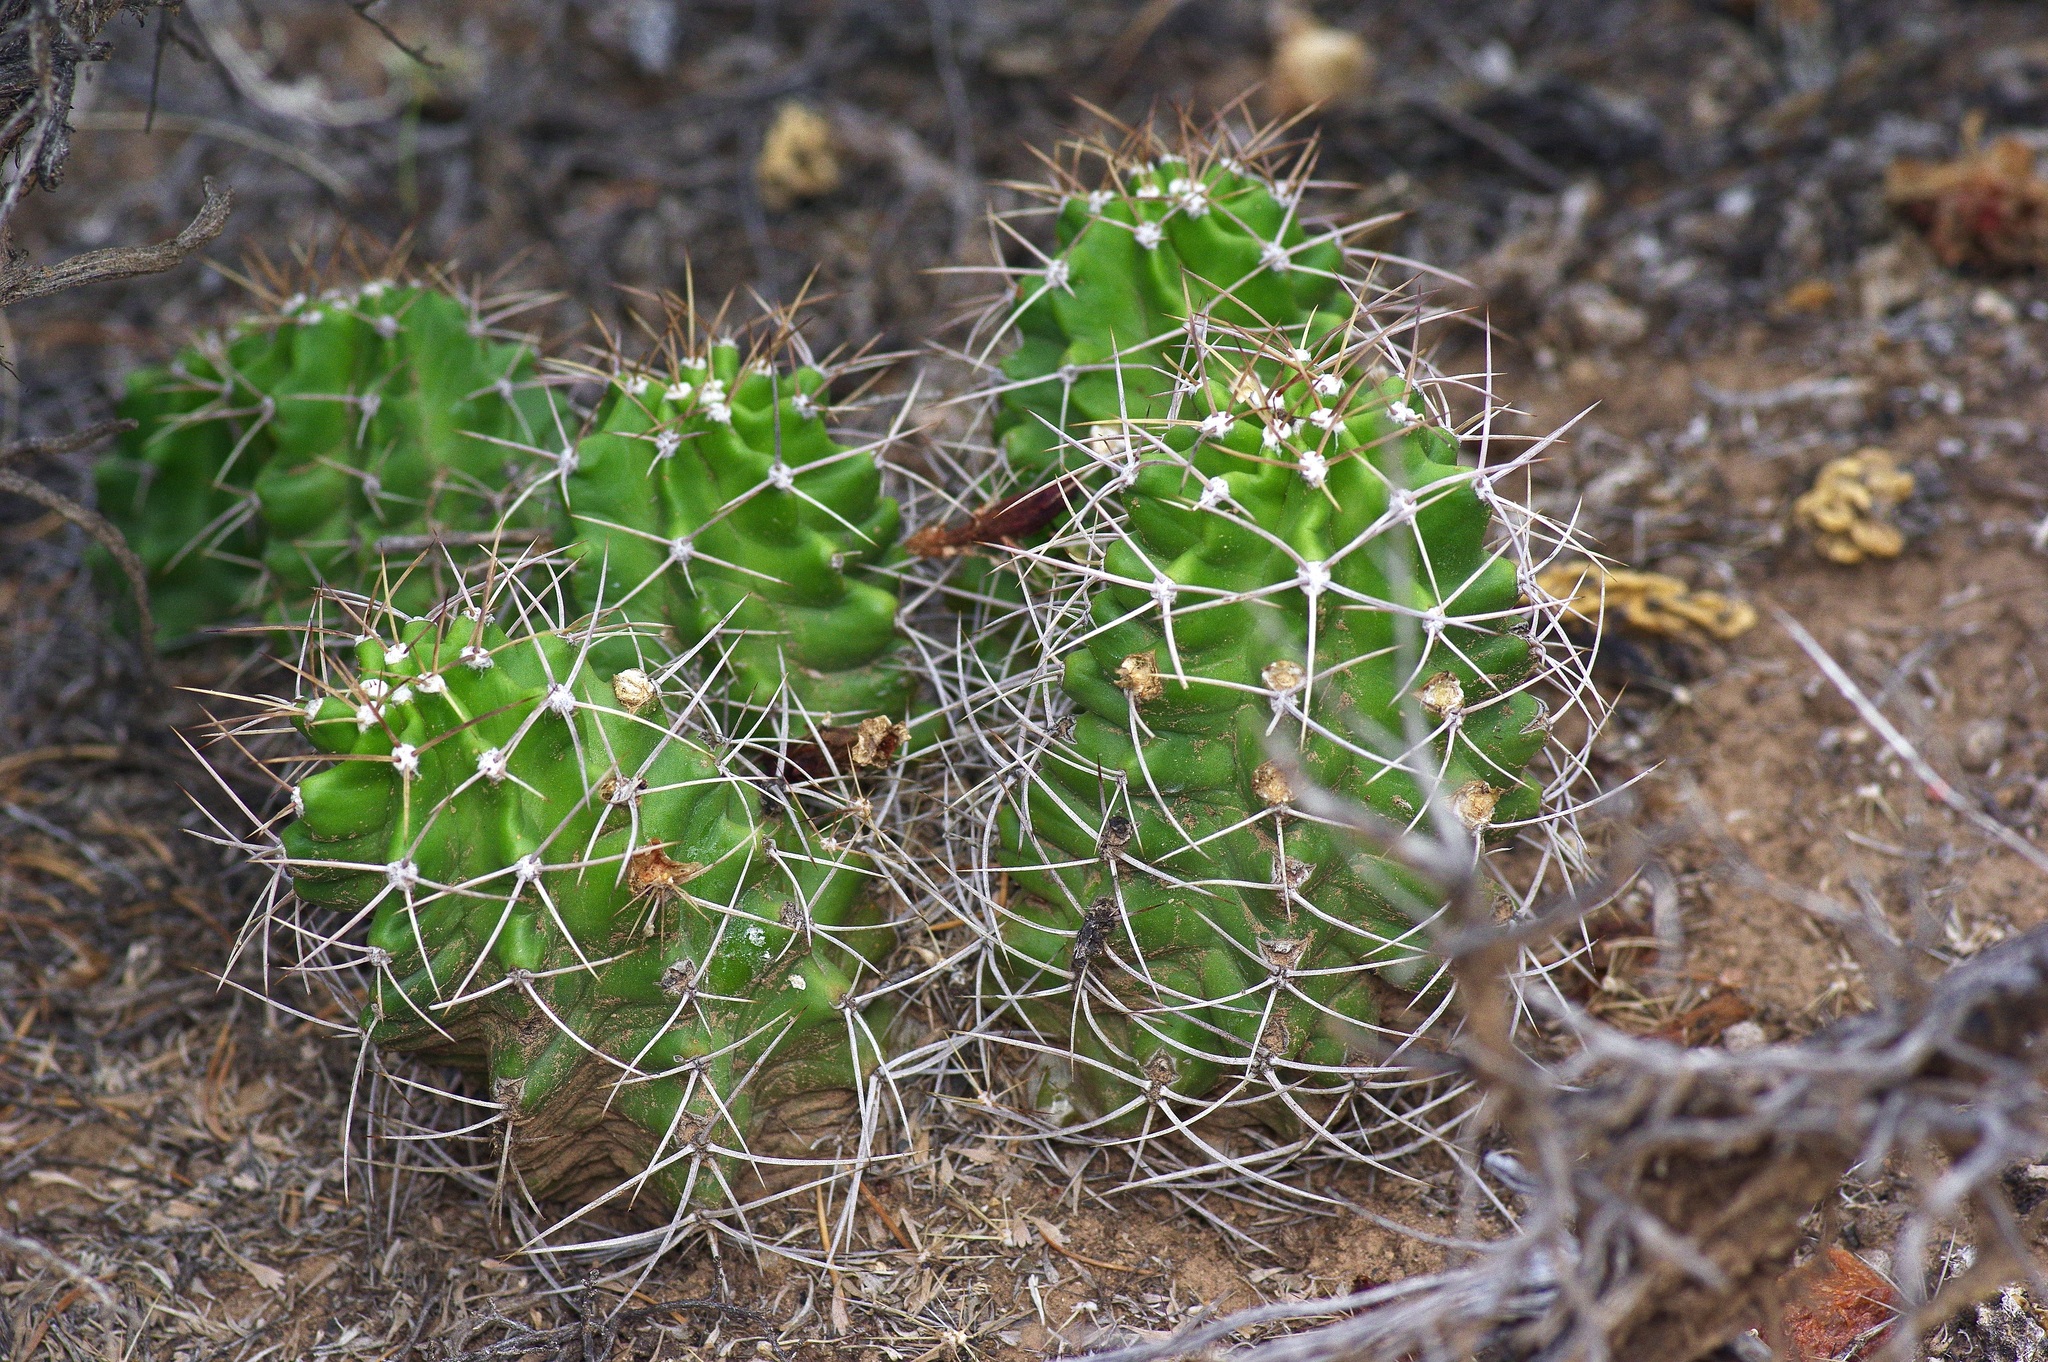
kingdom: Plantae
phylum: Tracheophyta
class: Magnoliopsida
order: Caryophyllales
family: Cactaceae
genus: Echinocereus
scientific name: Echinocereus triglochidiatus
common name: Claretcup hedgehog
